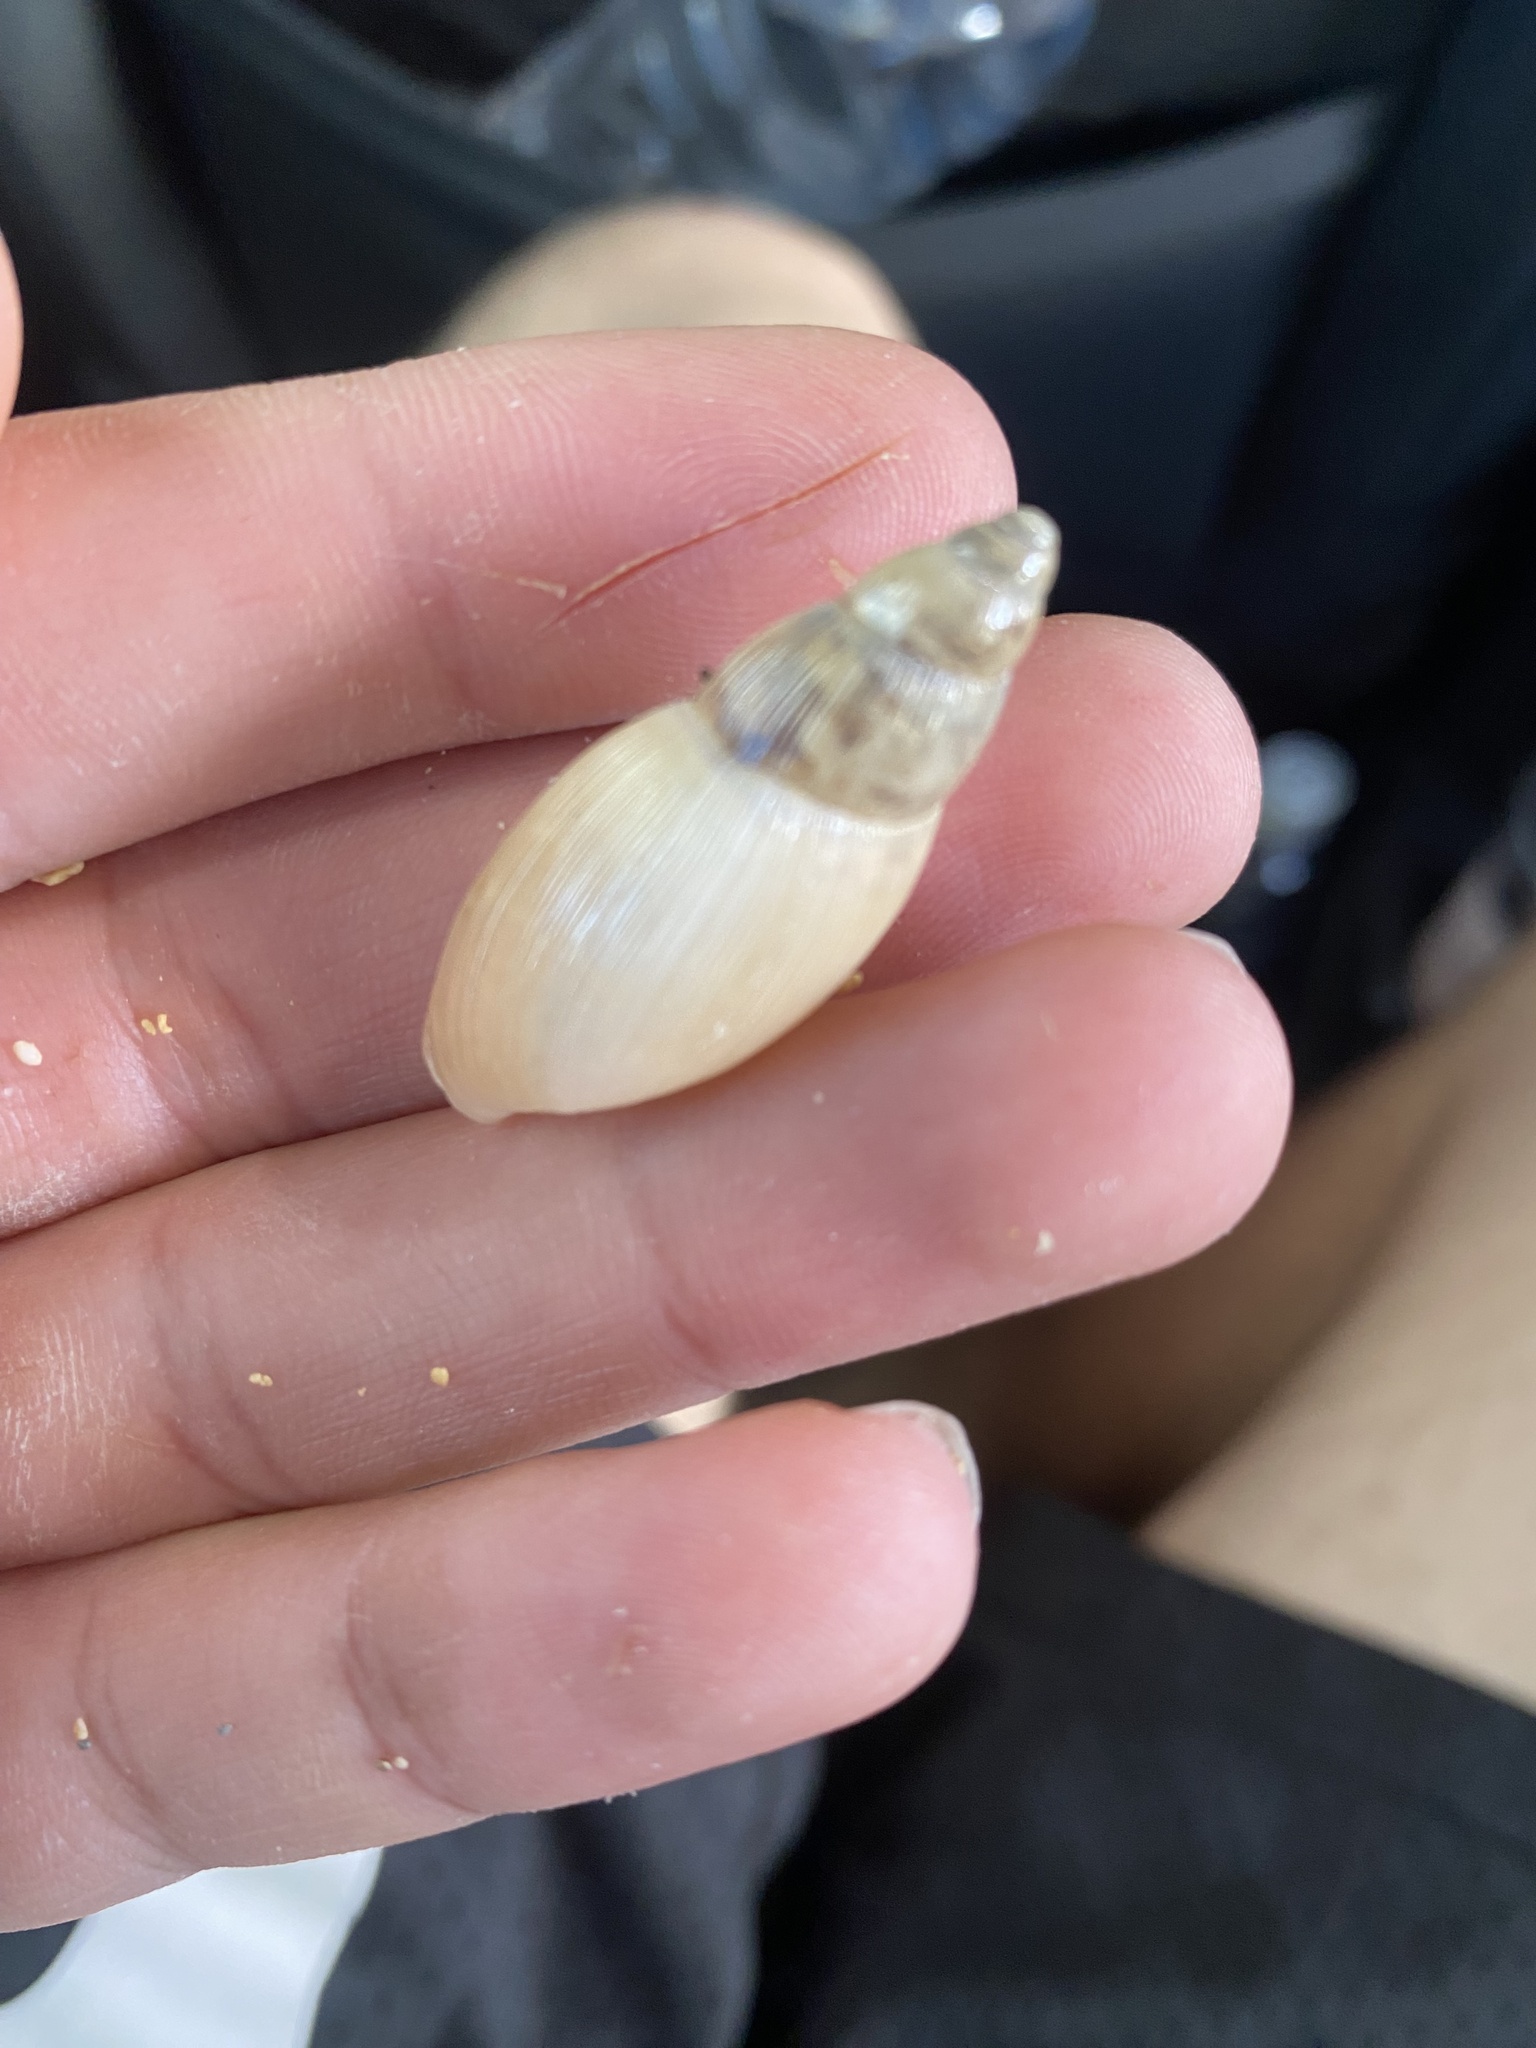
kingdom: Animalia
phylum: Mollusca
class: Gastropoda
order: Stylommatophora
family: Spiraxidae
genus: Euglandina
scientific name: Euglandina rosea
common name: Rosy wolfsnail
